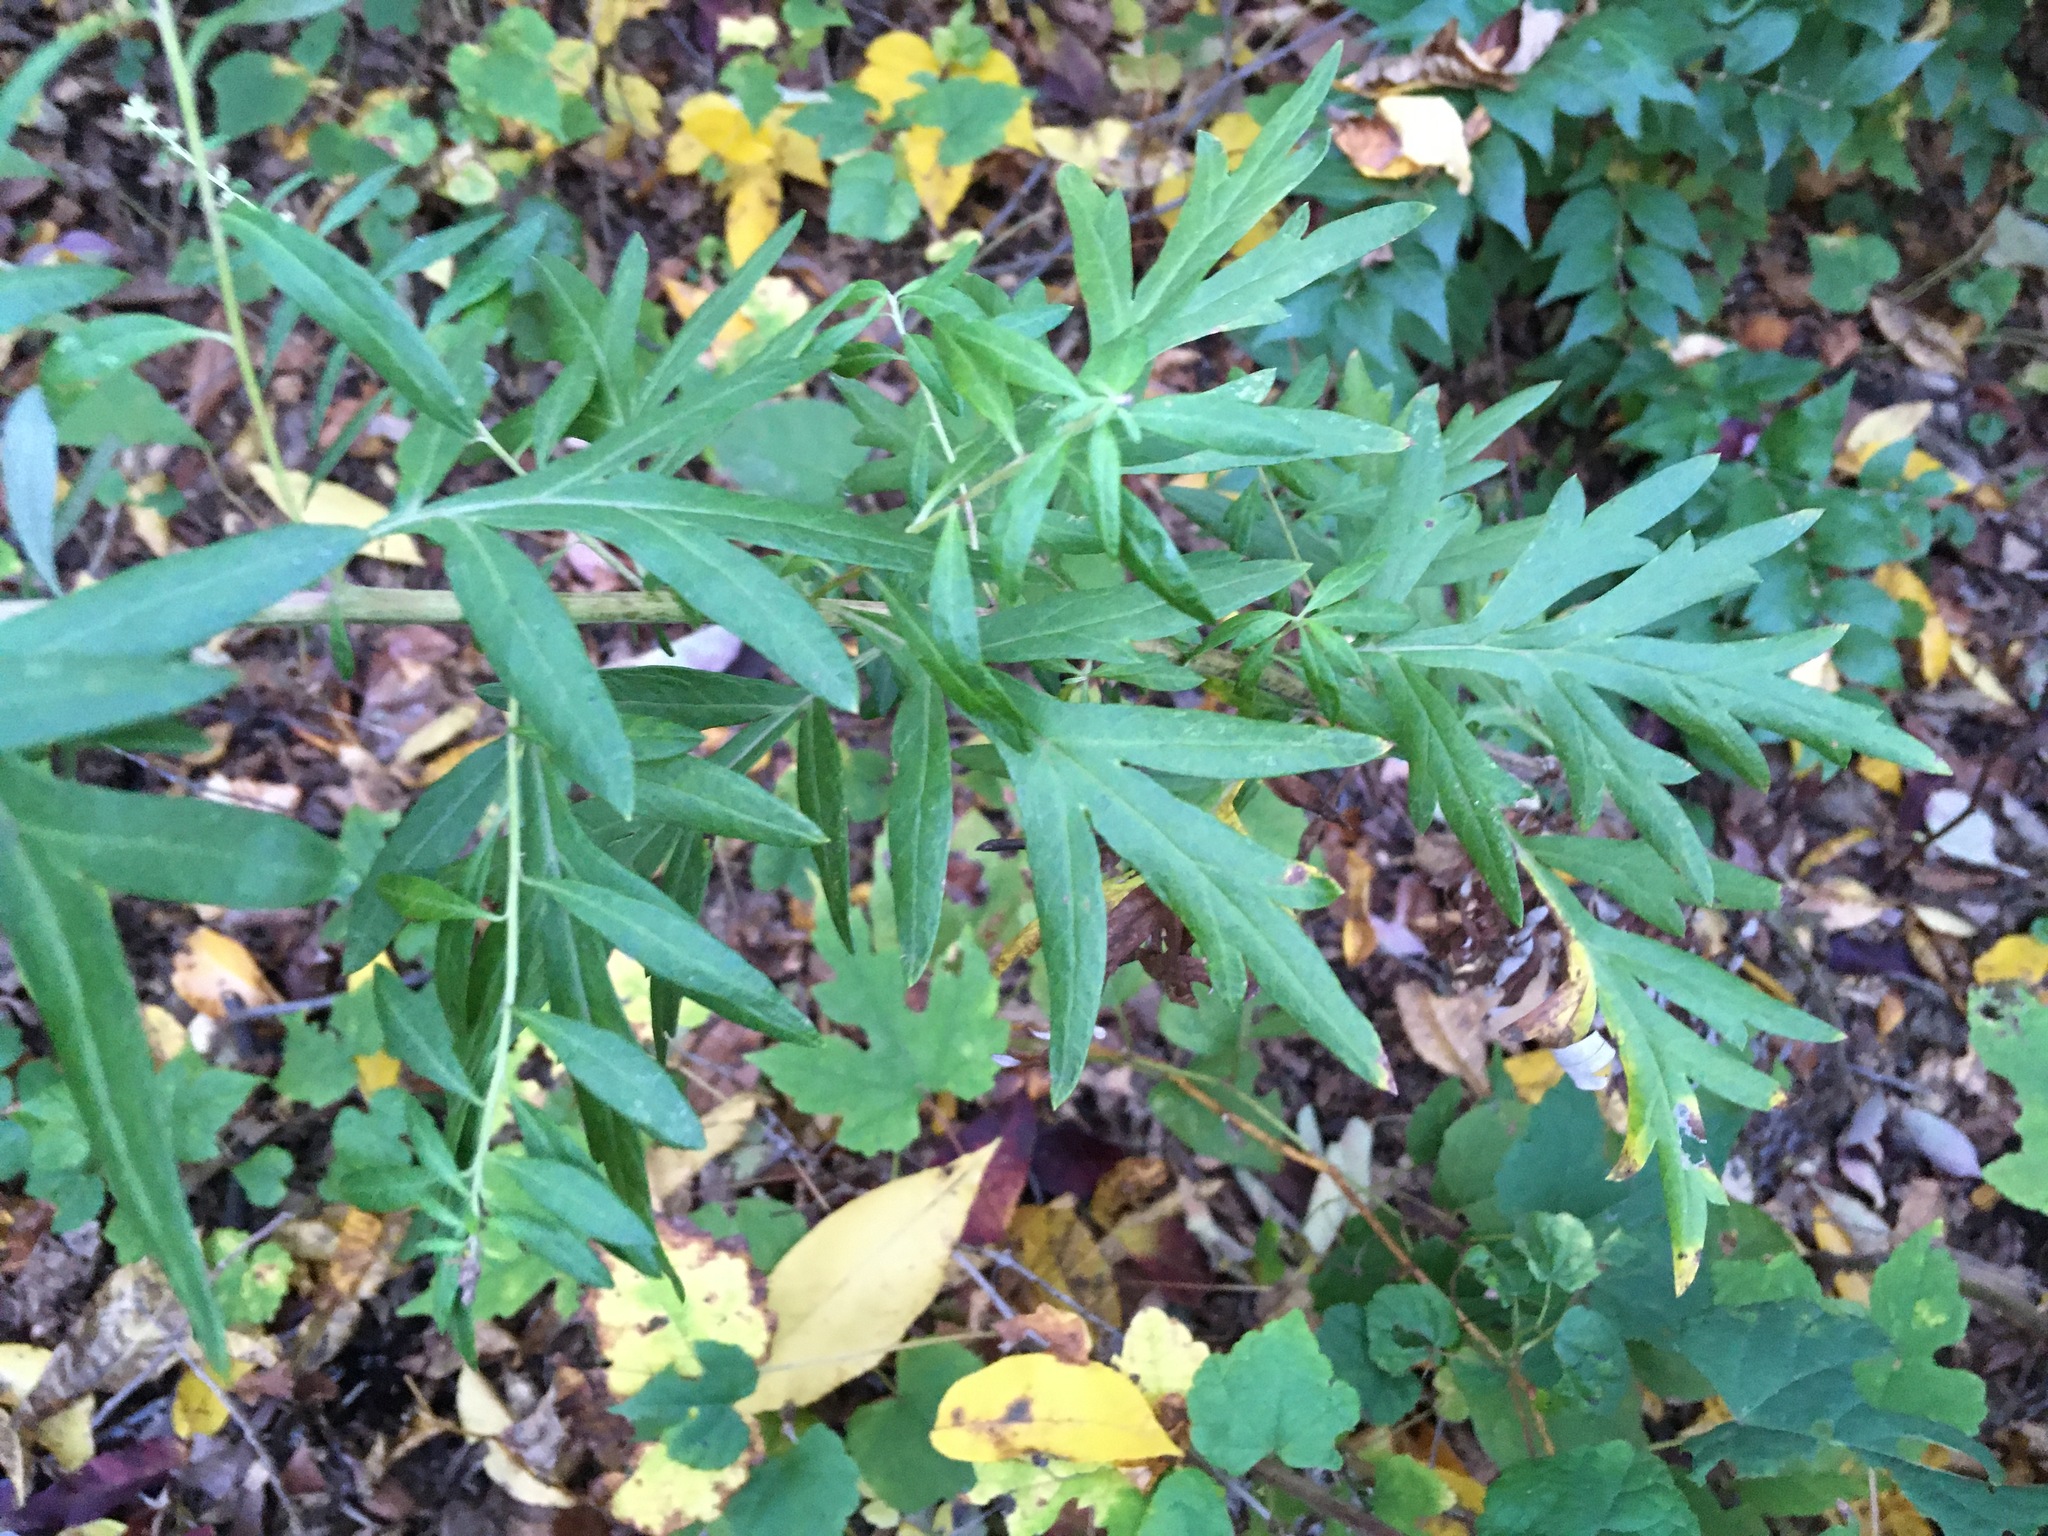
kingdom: Plantae
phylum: Tracheophyta
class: Magnoliopsida
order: Asterales
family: Asteraceae
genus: Artemisia
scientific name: Artemisia vulgaris
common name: Mugwort
